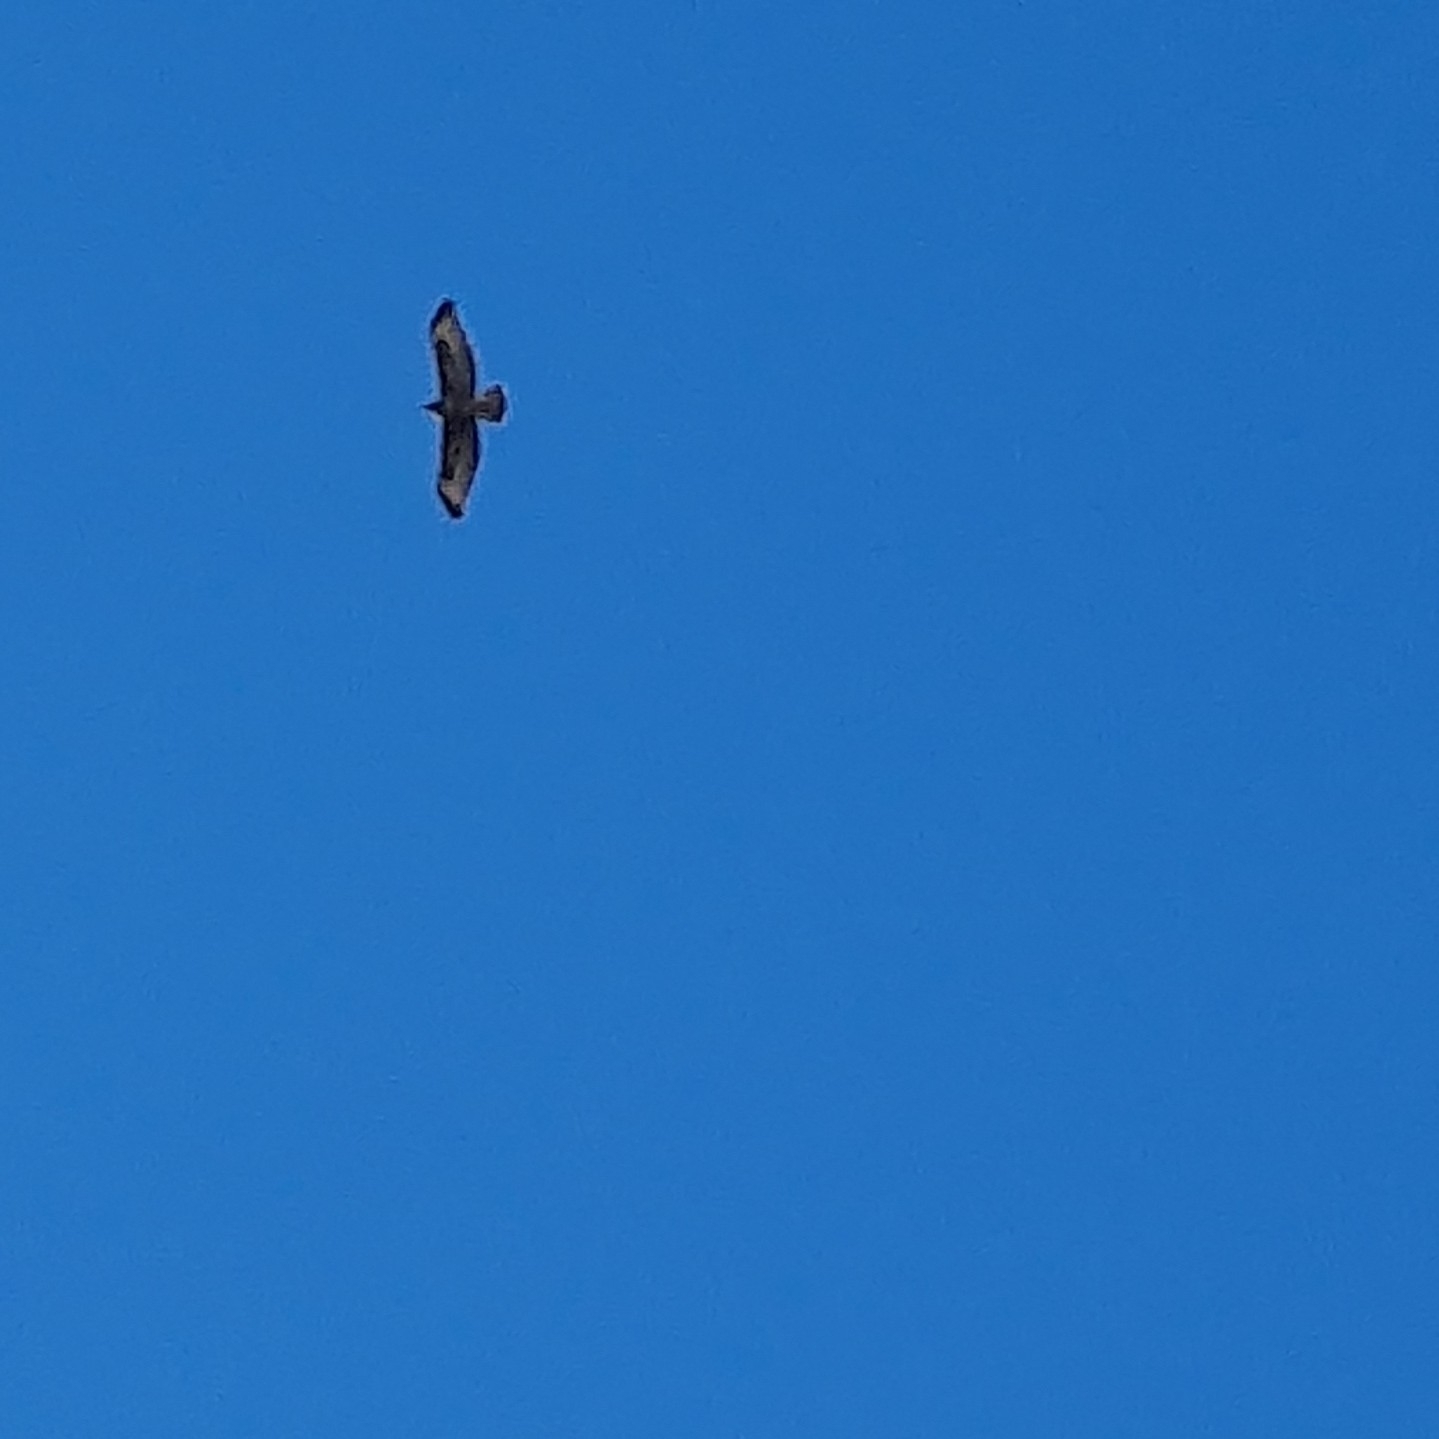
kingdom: Animalia
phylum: Chordata
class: Aves
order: Accipitriformes
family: Accipitridae
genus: Buteo
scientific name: Buteo buteo
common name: Common buzzard
